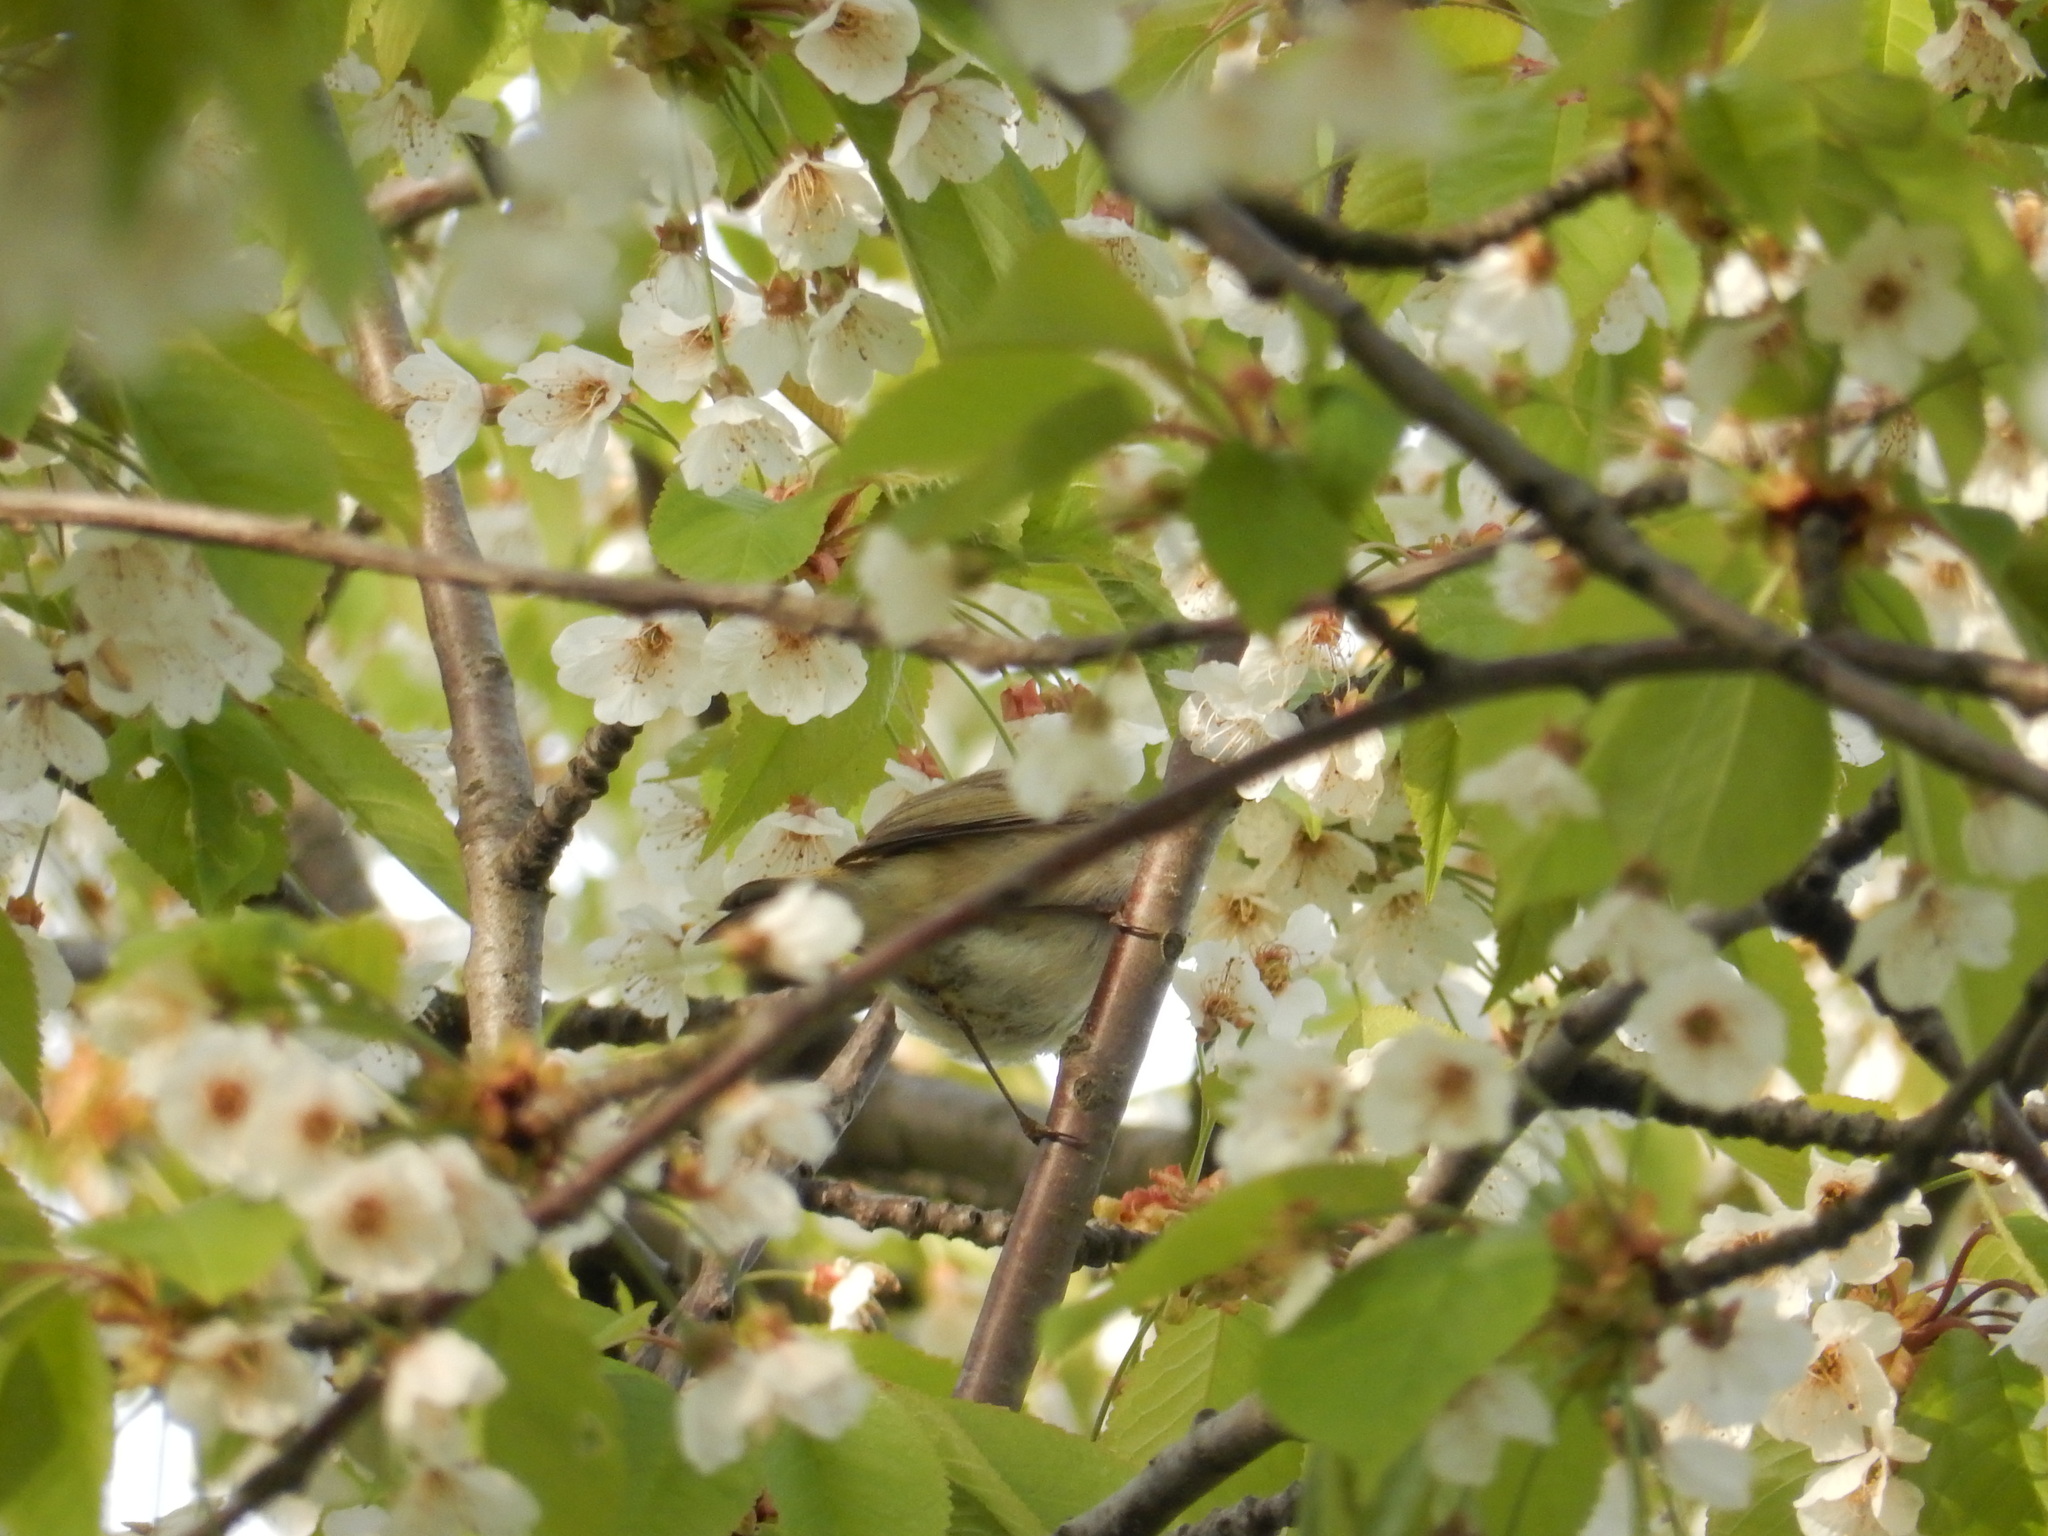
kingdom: Animalia
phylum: Chordata
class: Aves
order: Passeriformes
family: Phylloscopidae
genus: Phylloscopus
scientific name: Phylloscopus collybita
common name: Common chiffchaff
